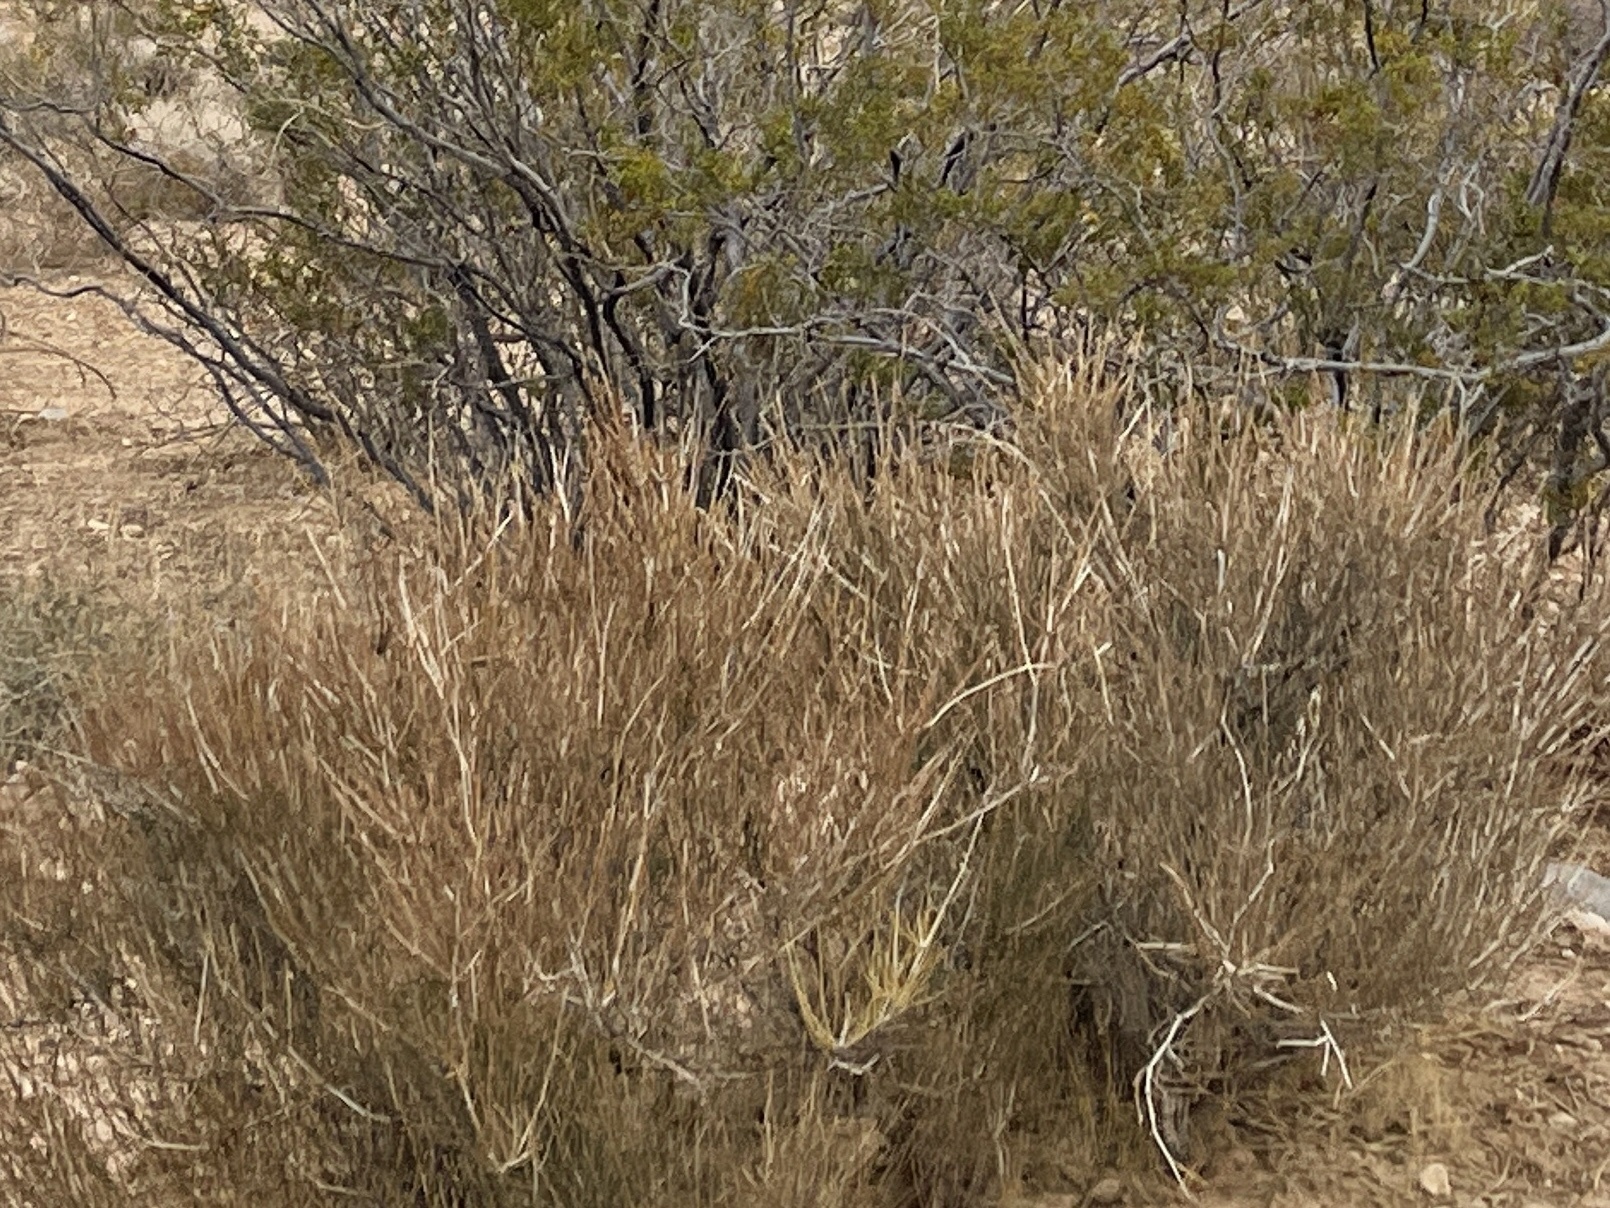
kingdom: Plantae
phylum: Tracheophyta
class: Gnetopsida
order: Ephedrales
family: Ephedraceae
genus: Ephedra
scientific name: Ephedra nevadensis
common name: Gray ephedra
